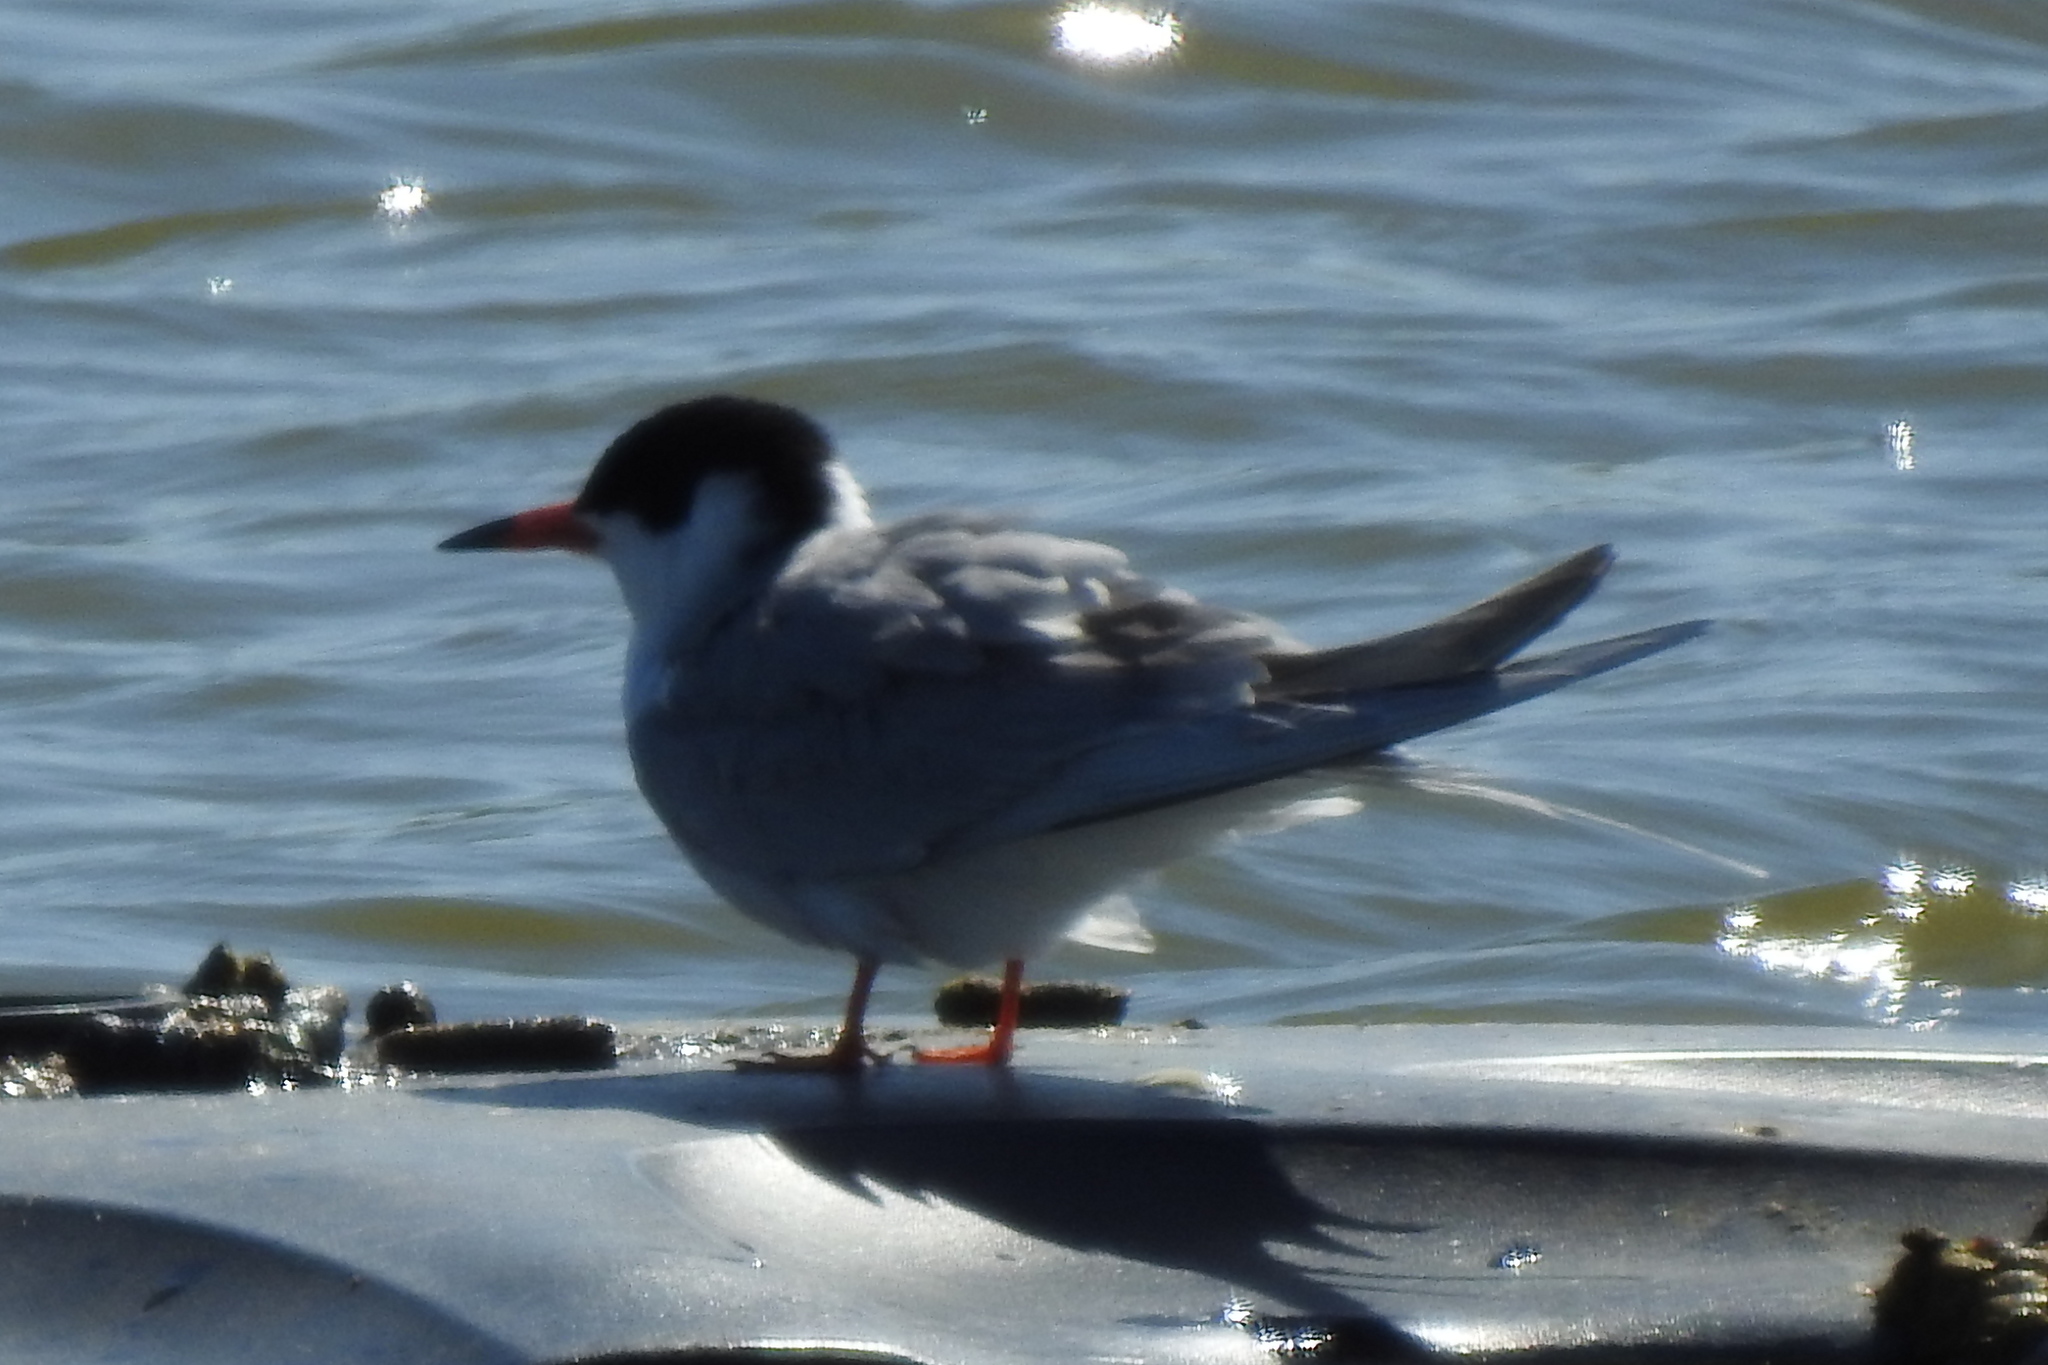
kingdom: Animalia
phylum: Chordata
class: Aves
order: Charadriiformes
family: Laridae
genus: Sterna
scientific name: Sterna forsteri
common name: Forster's tern
